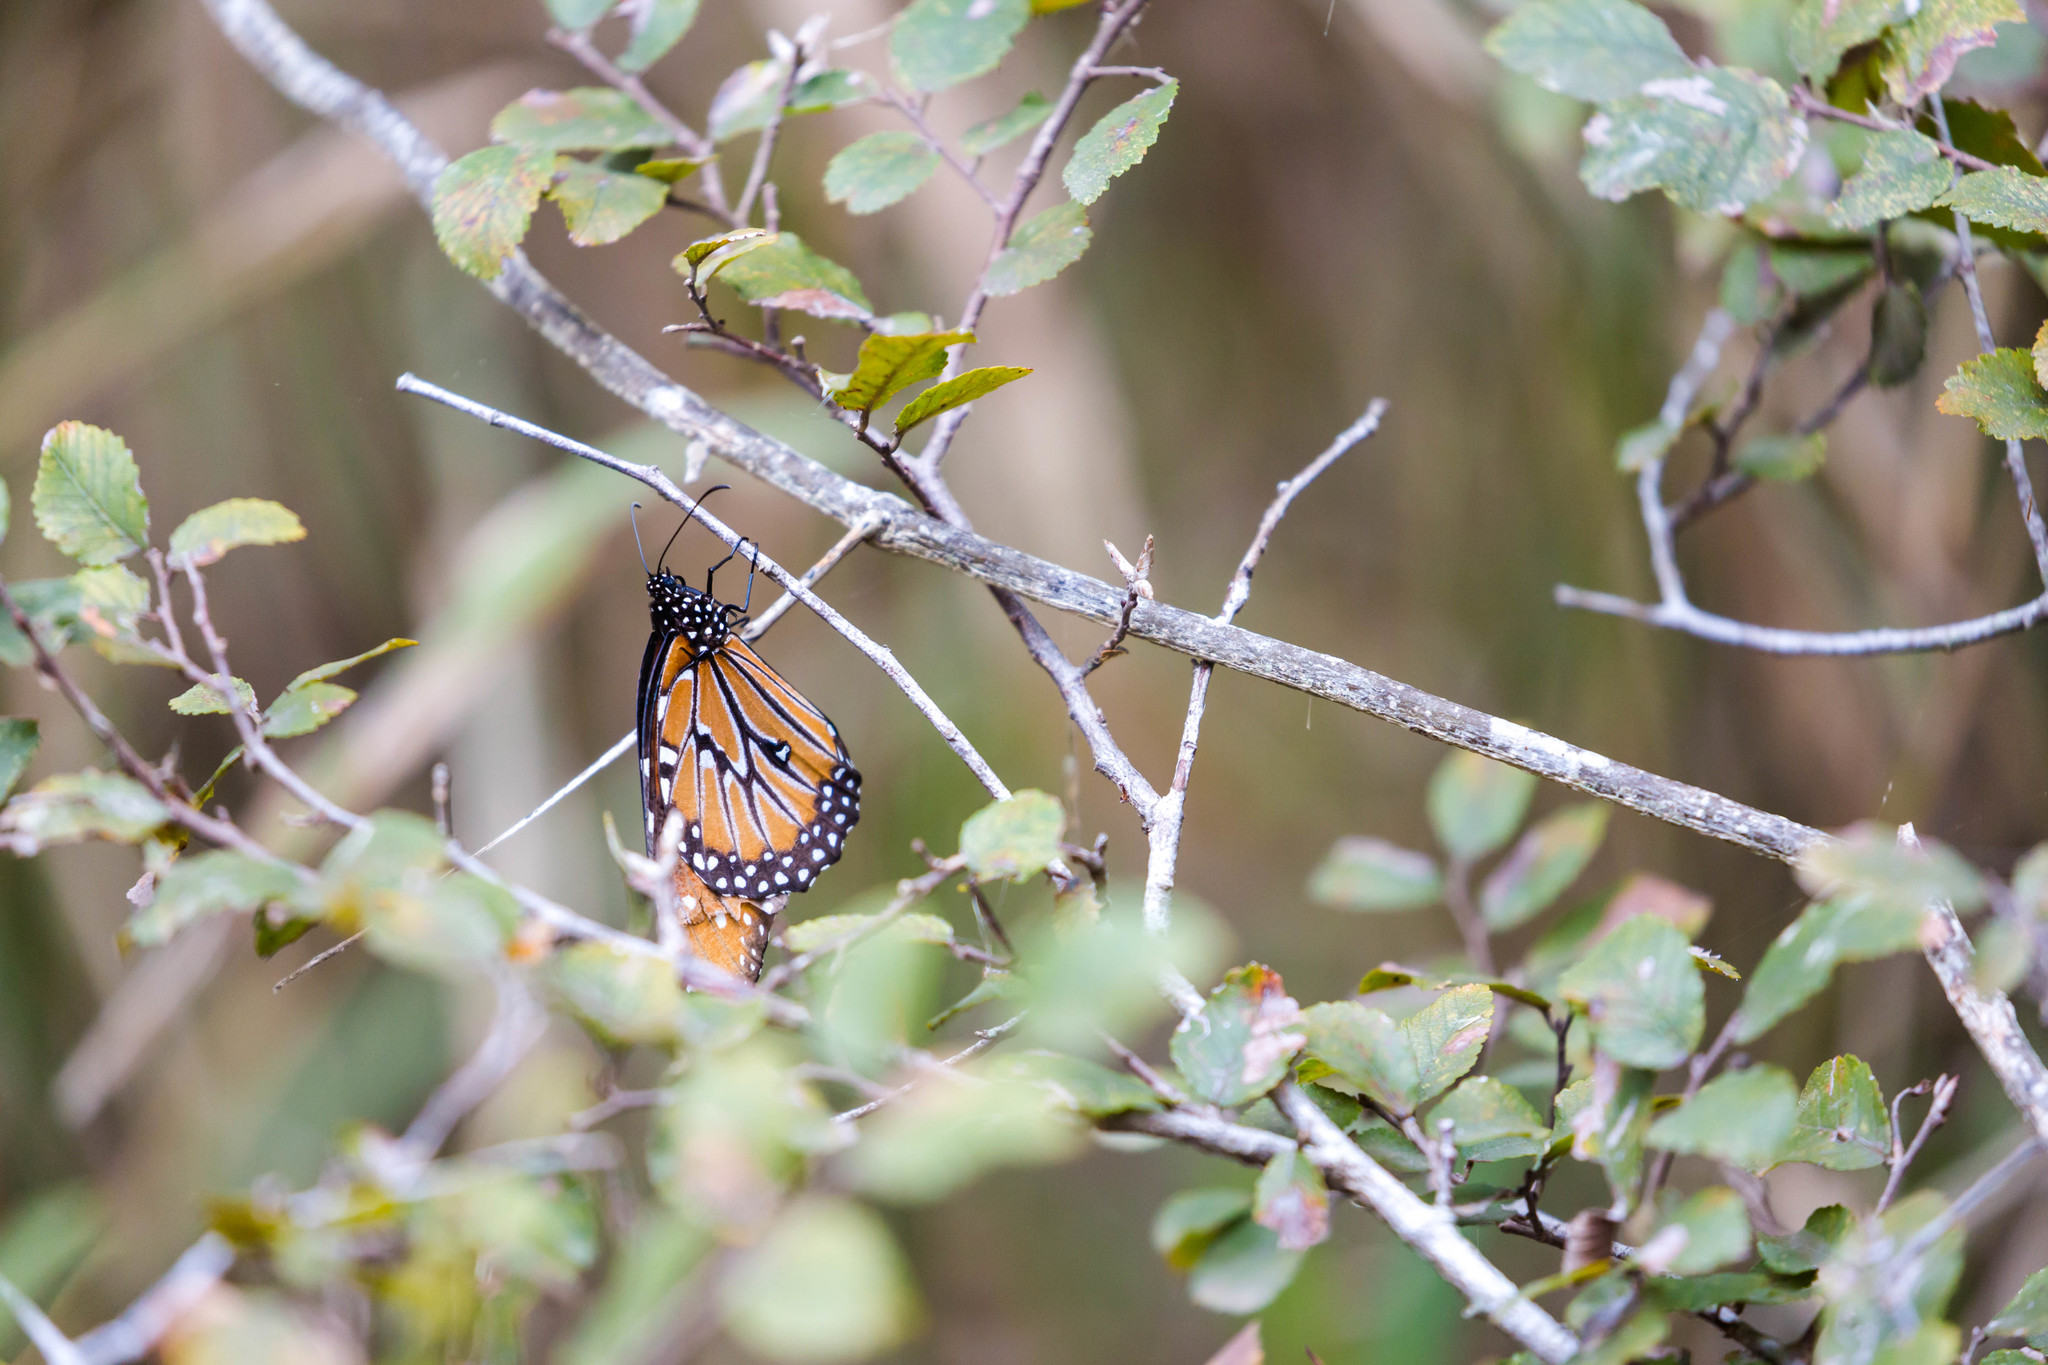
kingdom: Animalia
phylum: Arthropoda
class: Insecta
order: Lepidoptera
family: Nymphalidae
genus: Danaus
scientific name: Danaus gilippus
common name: Queen
